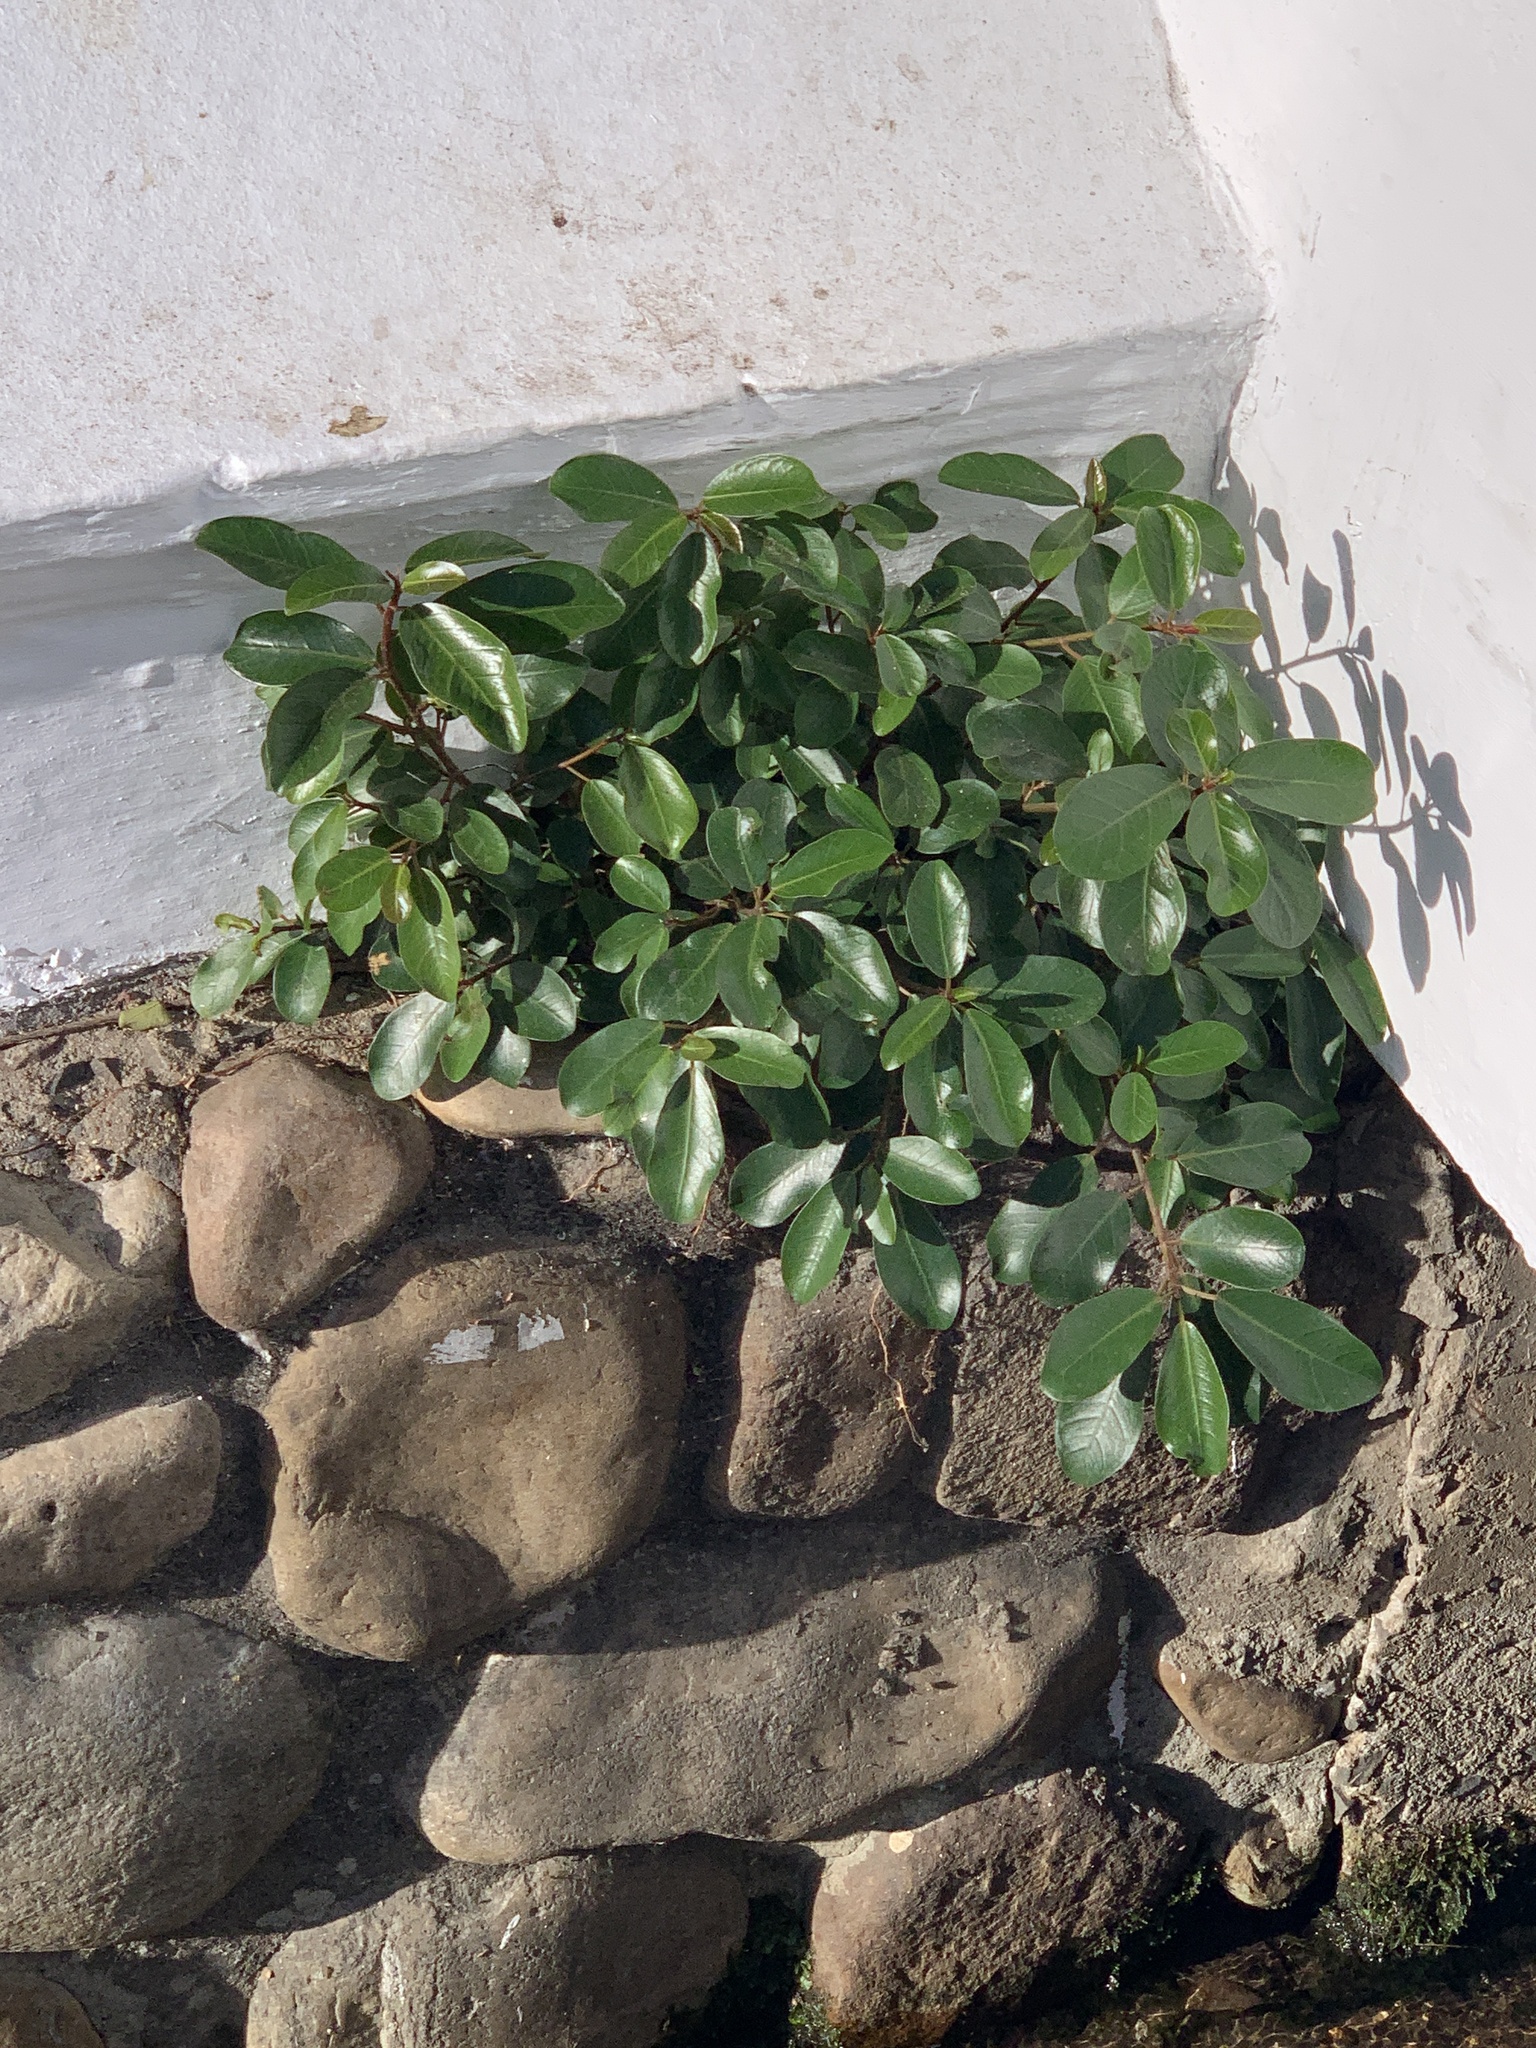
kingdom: Plantae
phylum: Tracheophyta
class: Magnoliopsida
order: Rosales
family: Moraceae
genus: Ficus
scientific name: Ficus thonningii
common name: Fig
